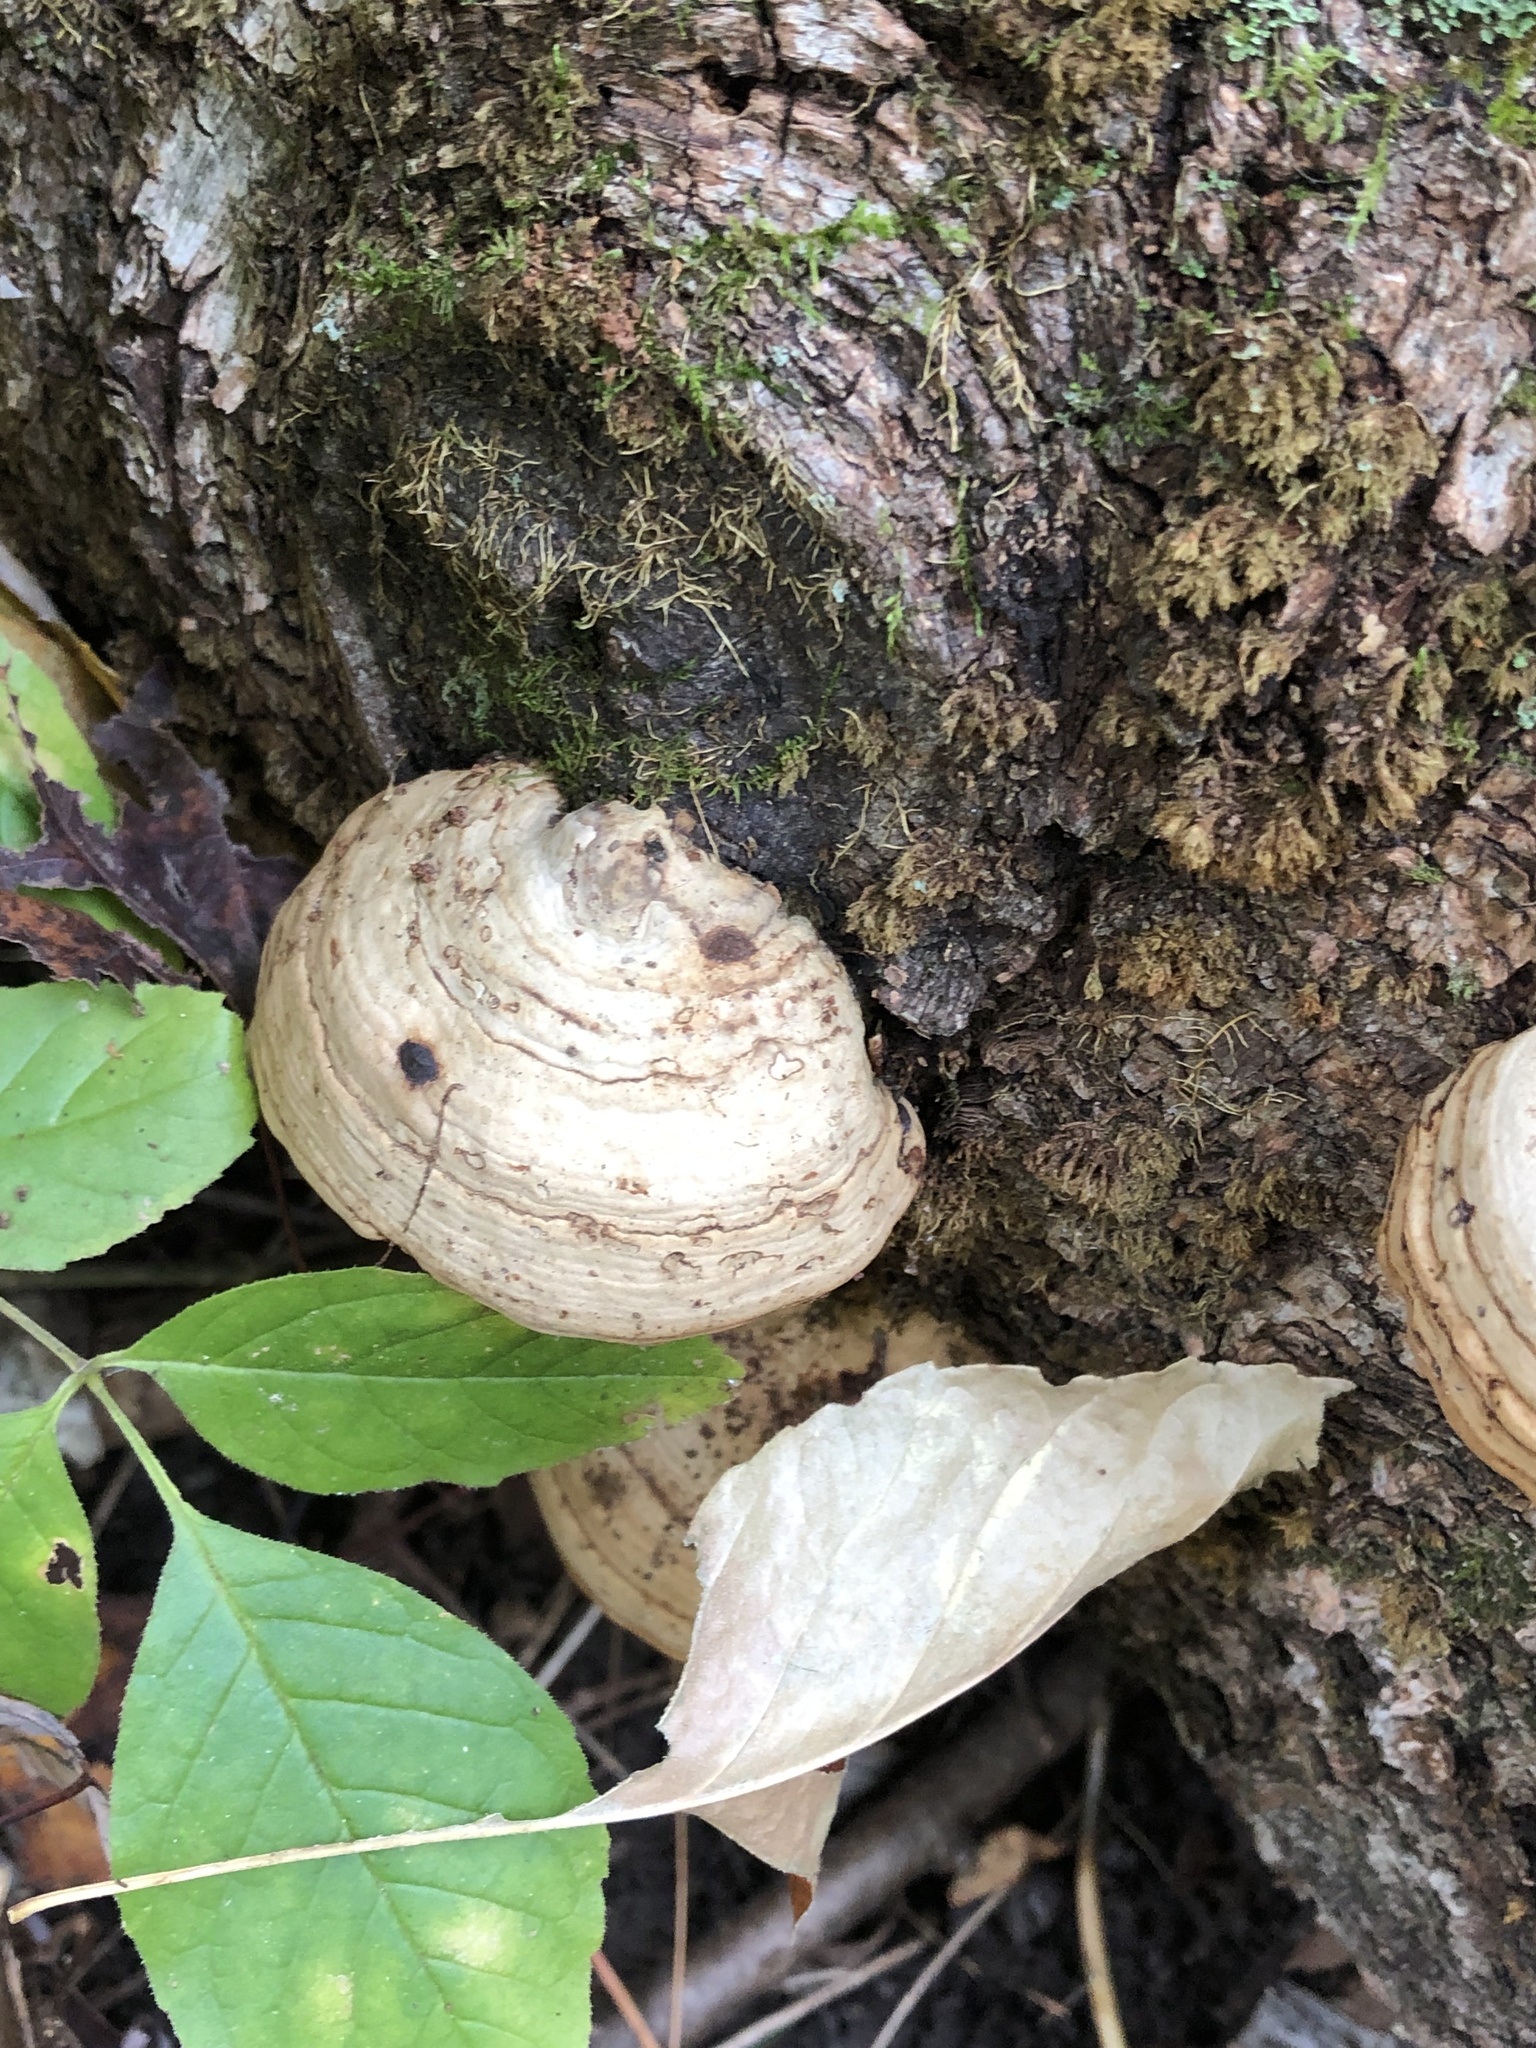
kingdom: Fungi
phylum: Basidiomycota
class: Agaricomycetes
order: Polyporales
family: Polyporaceae
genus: Fomes
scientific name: Fomes fomentarius
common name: Hoof fungus
